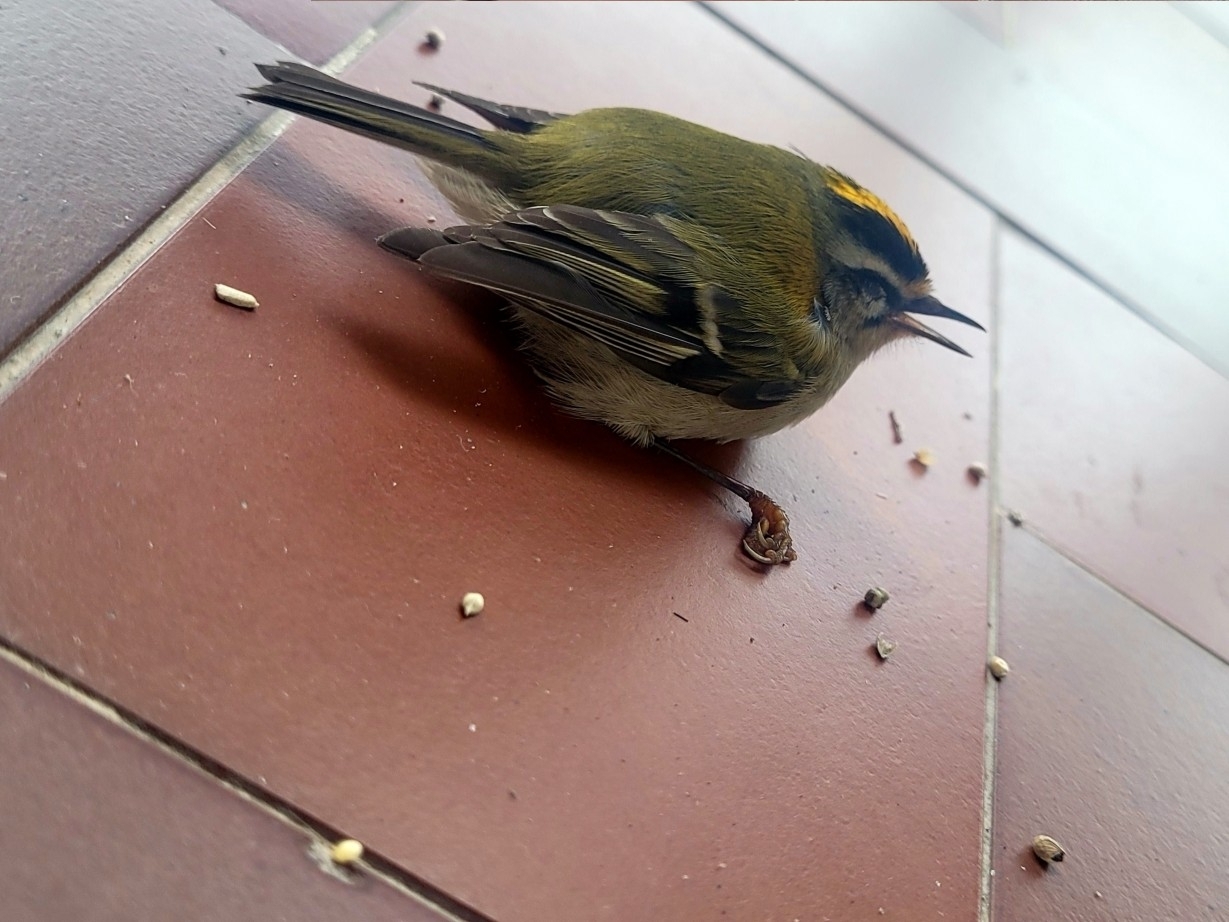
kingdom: Animalia
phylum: Chordata
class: Aves
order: Passeriformes
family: Regulidae
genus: Regulus
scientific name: Regulus ignicapilla
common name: Firecrest
